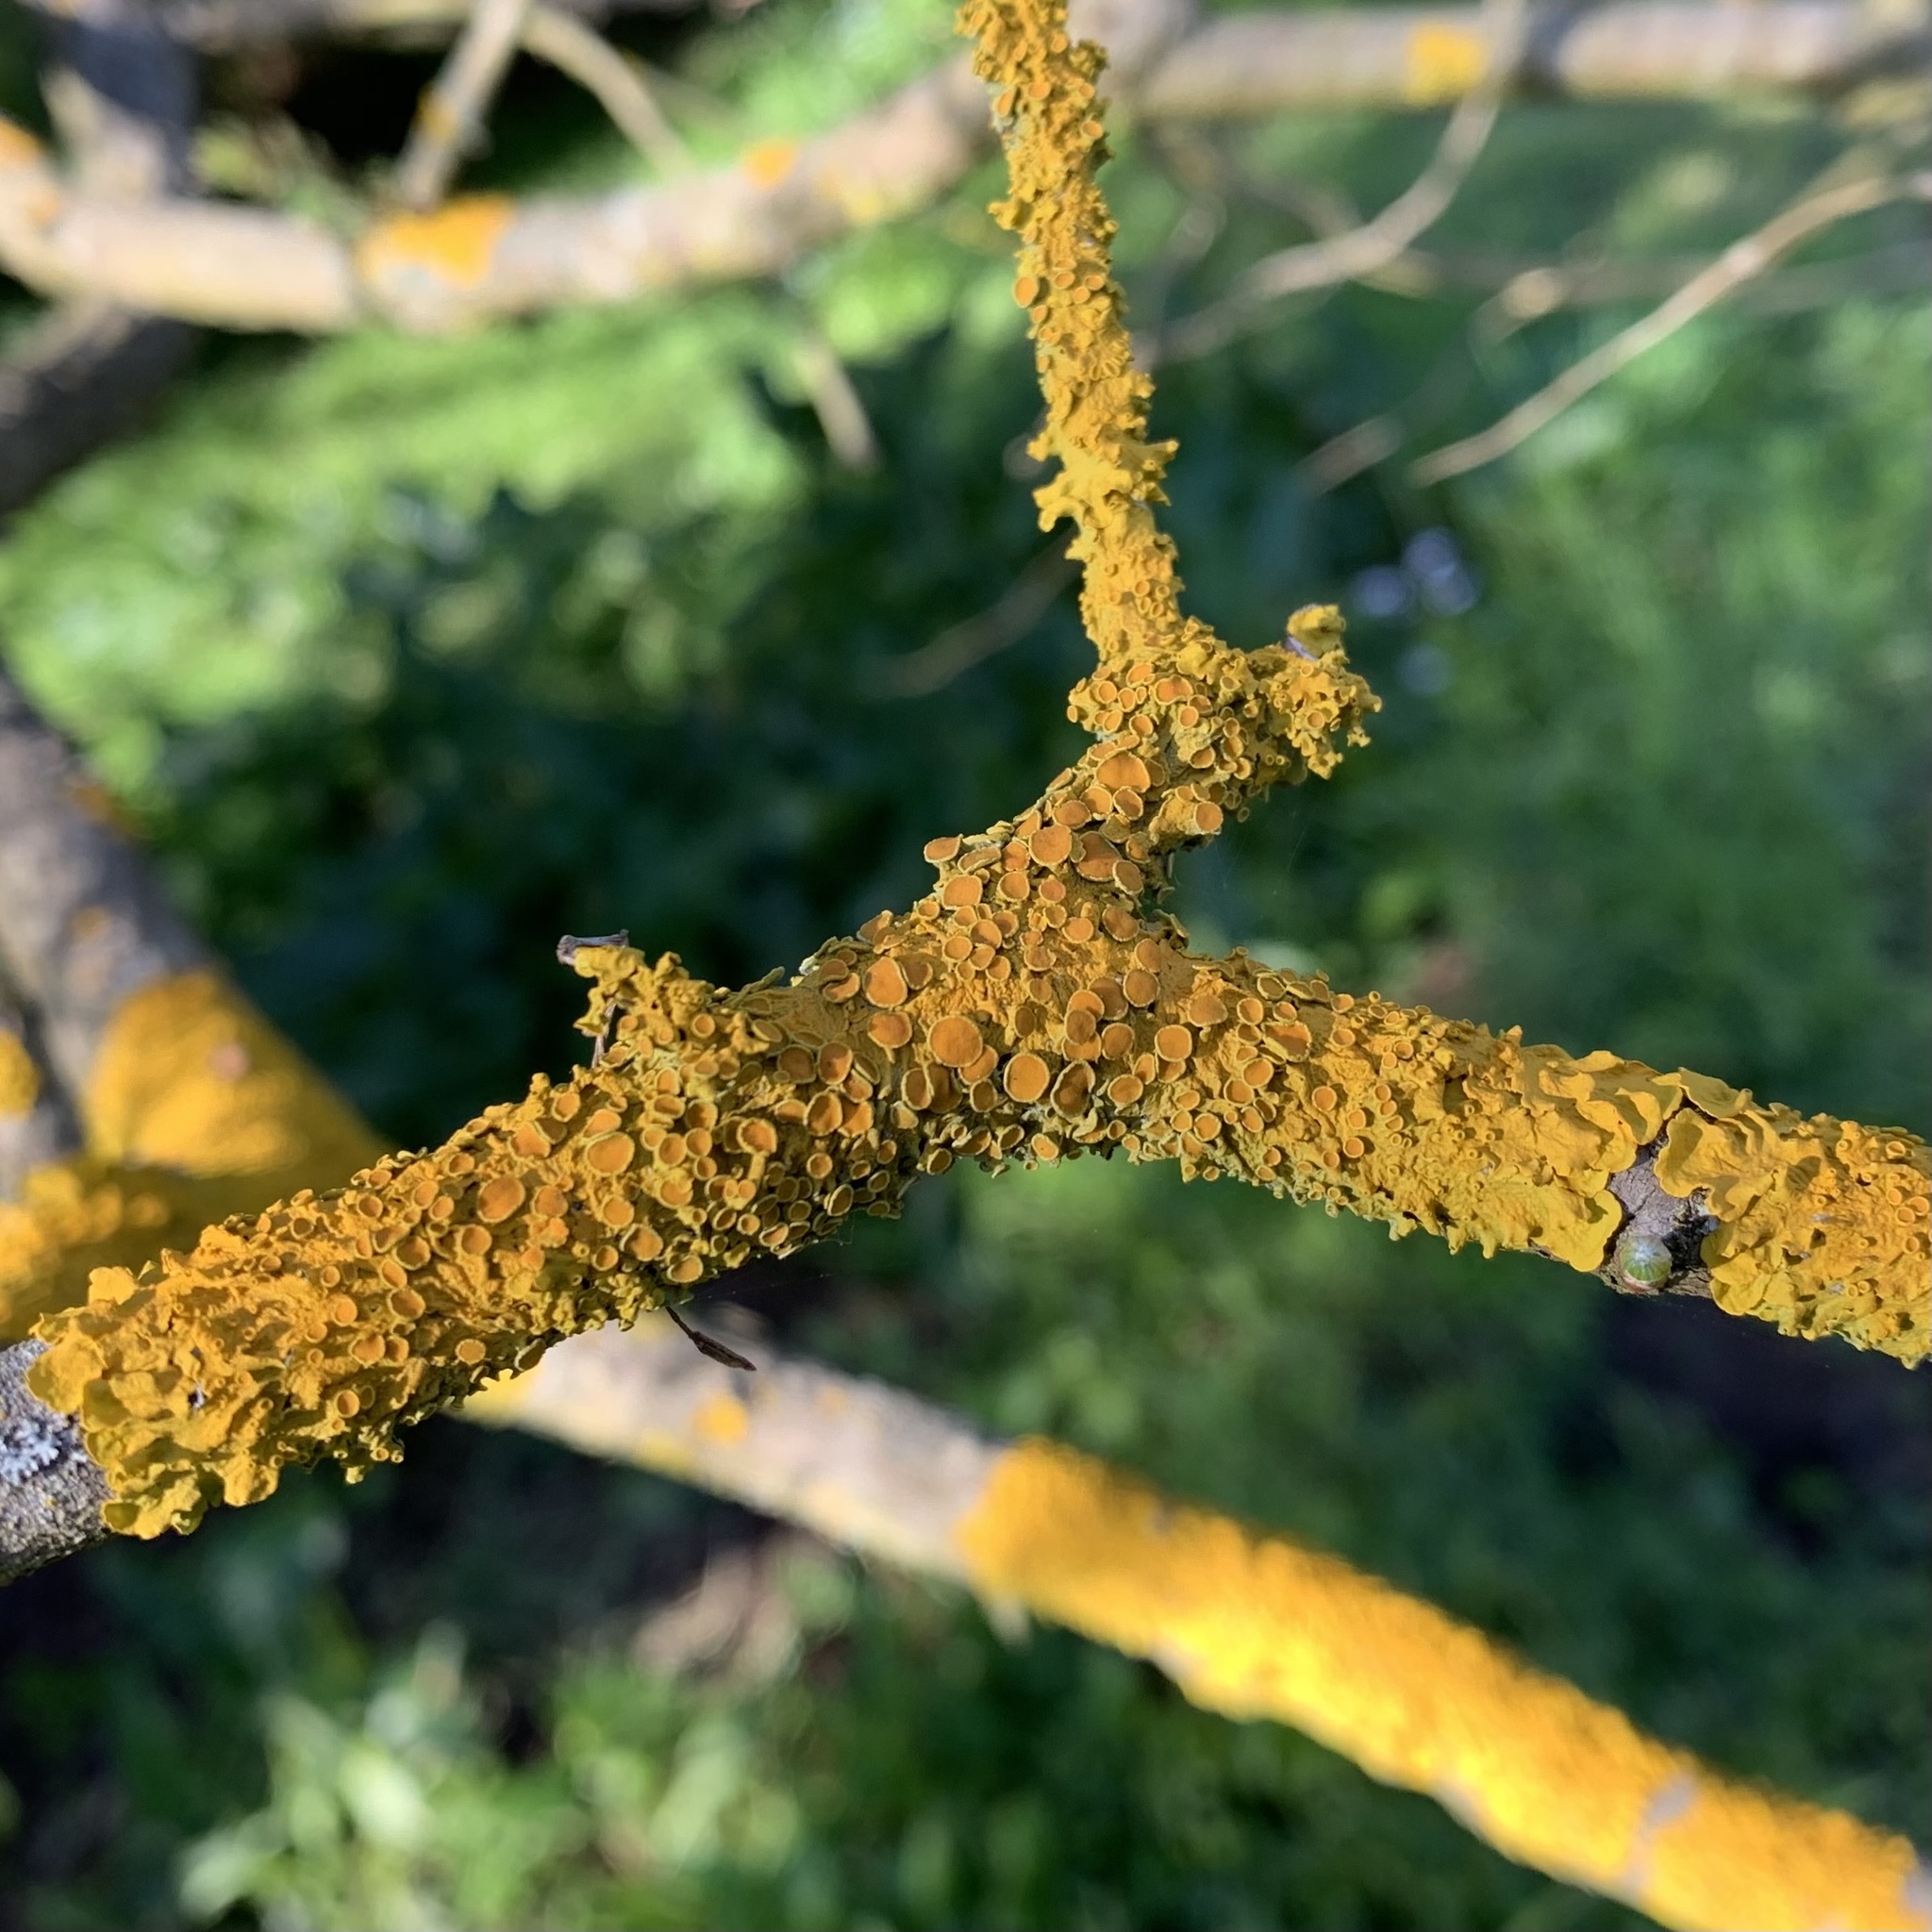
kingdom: Fungi
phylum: Ascomycota
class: Lecanoromycetes
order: Teloschistales
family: Teloschistaceae
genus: Xanthoria
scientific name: Xanthoria parietina
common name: Common orange lichen
